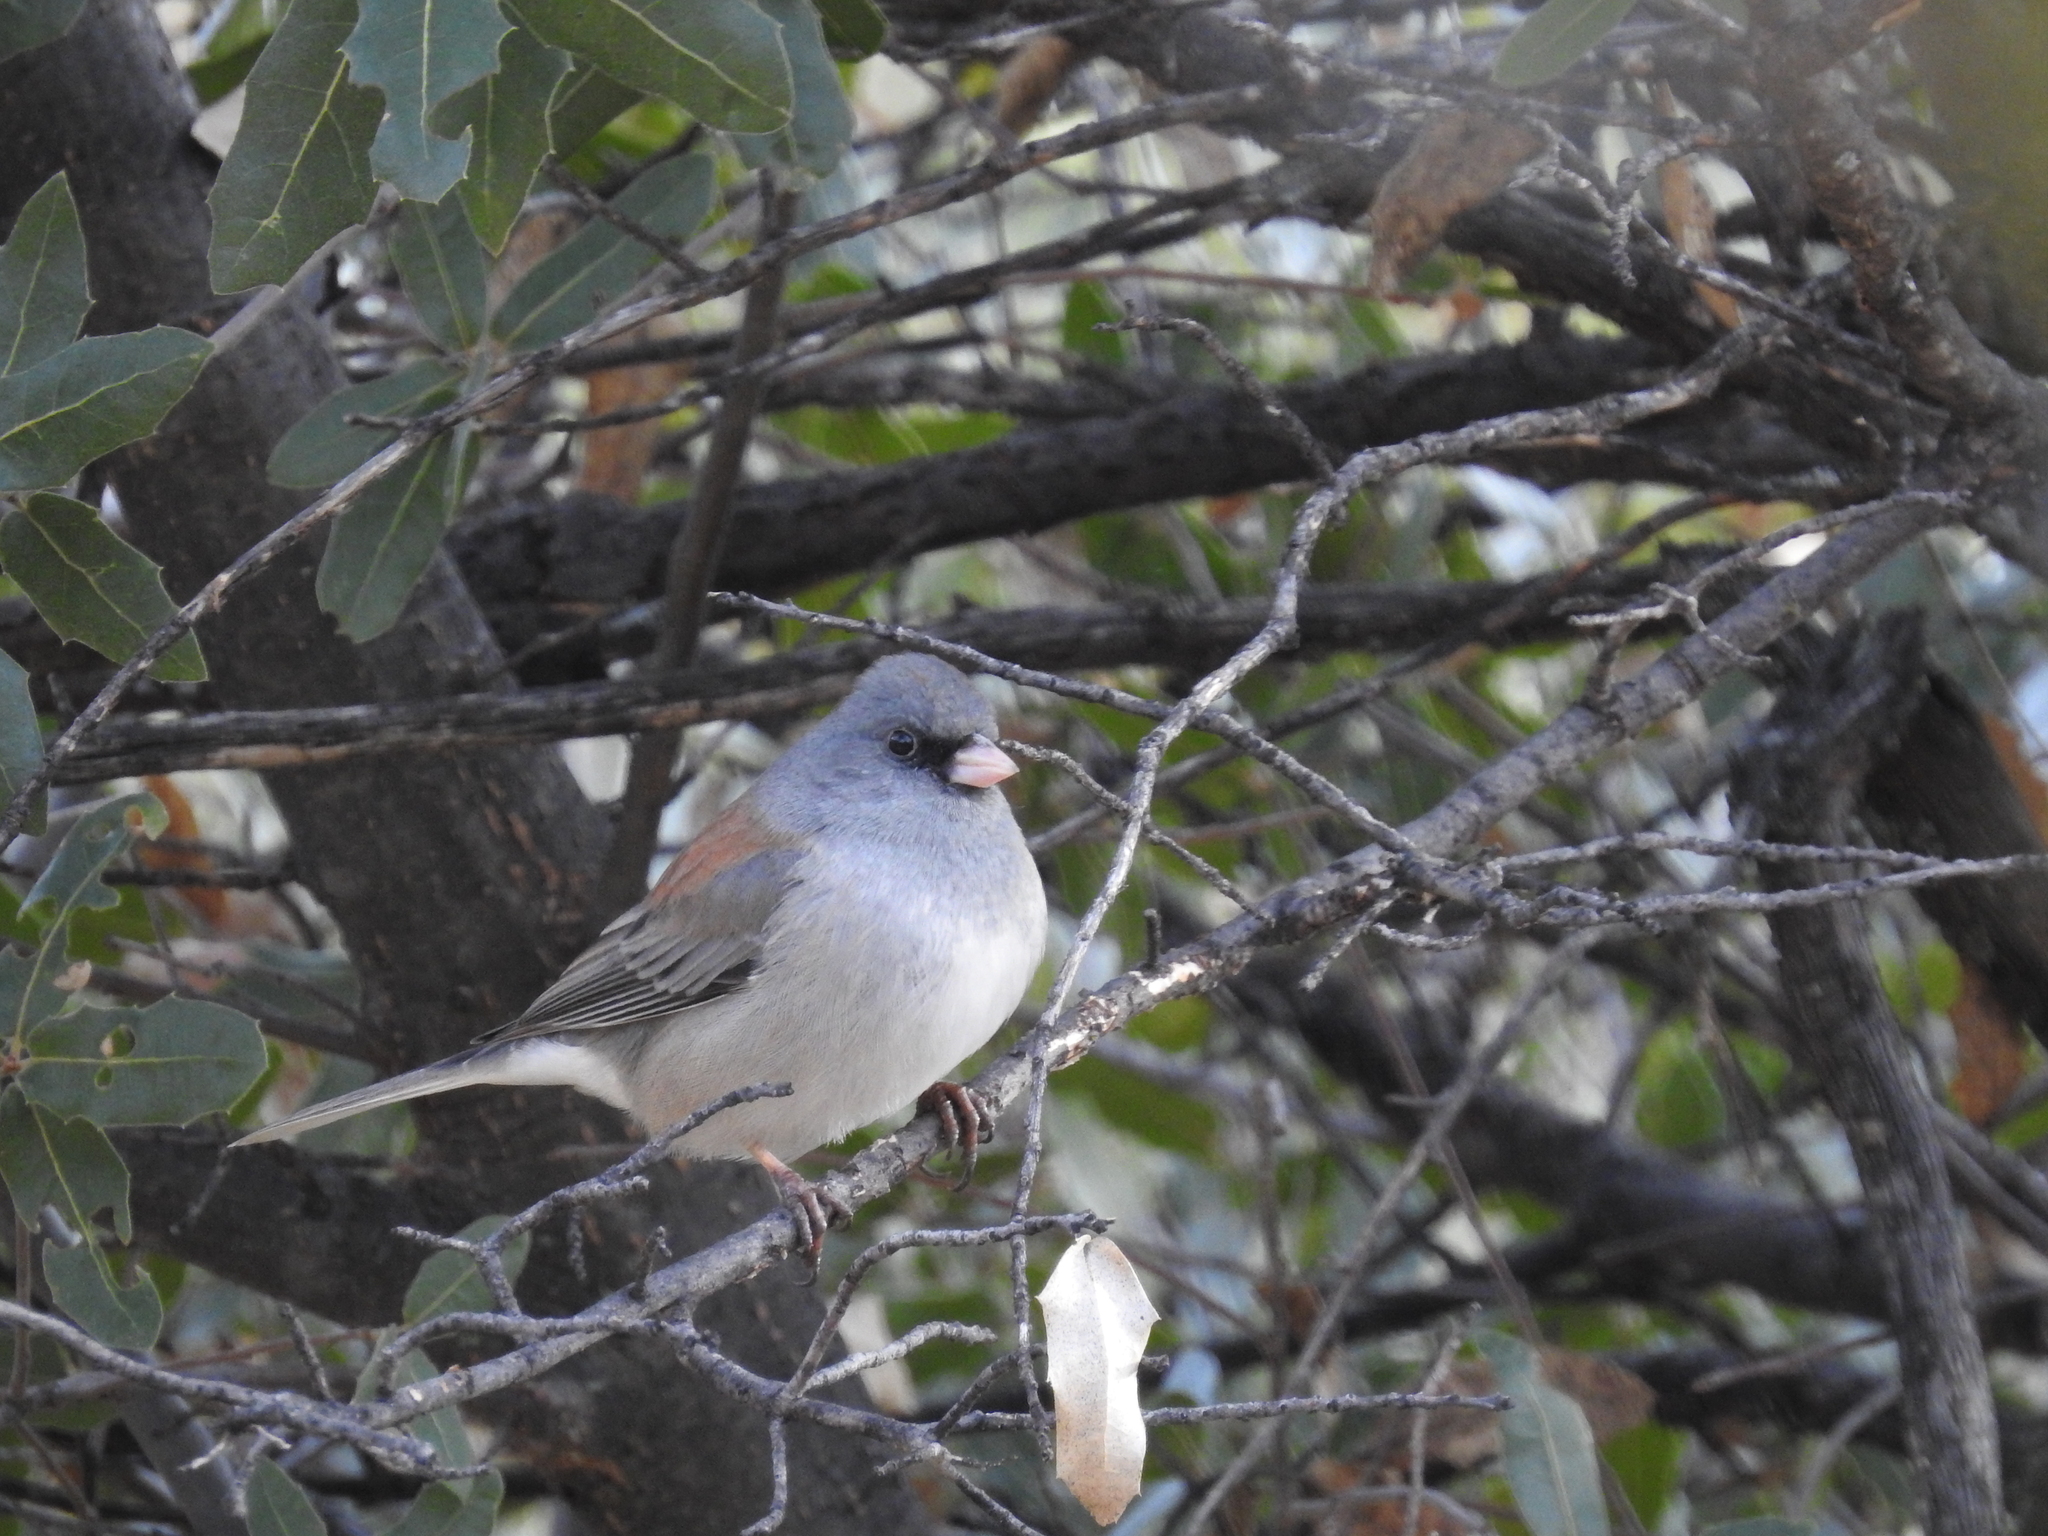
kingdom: Animalia
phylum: Chordata
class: Aves
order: Passeriformes
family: Passerellidae
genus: Junco
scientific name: Junco hyemalis
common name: Dark-eyed junco
